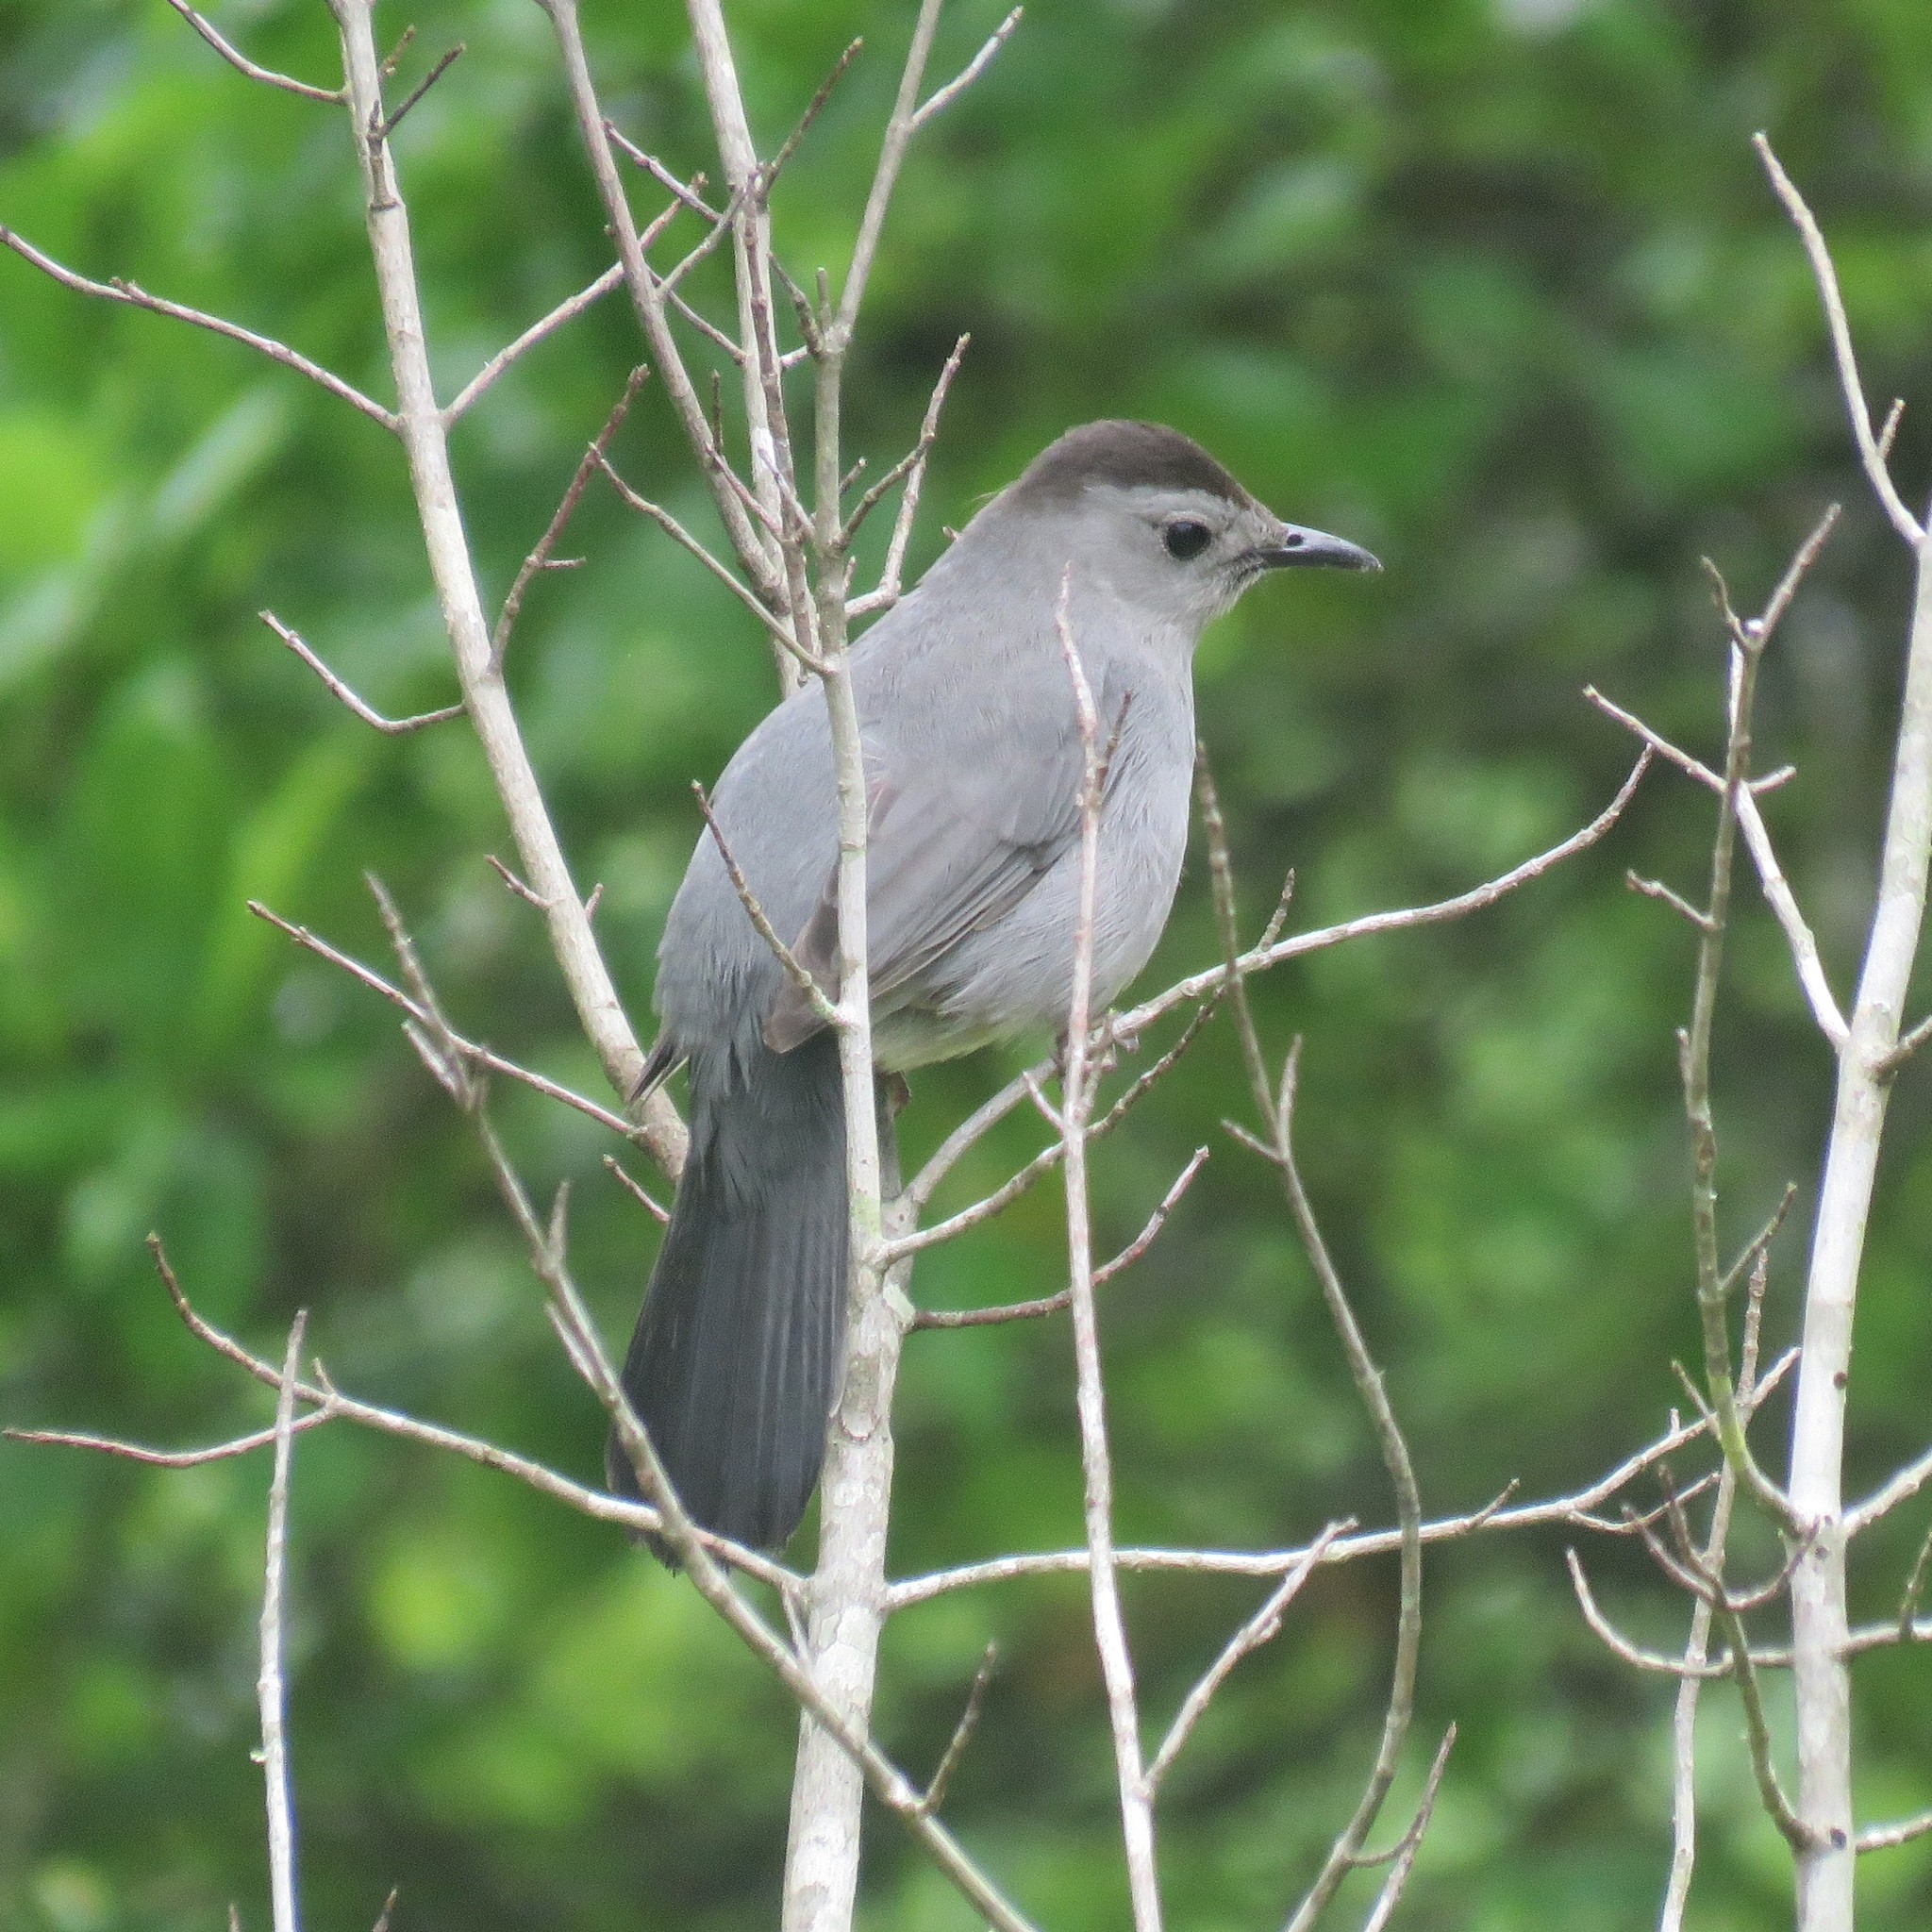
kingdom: Animalia
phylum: Chordata
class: Aves
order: Passeriformes
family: Mimidae
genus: Dumetella
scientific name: Dumetella carolinensis
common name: Gray catbird
